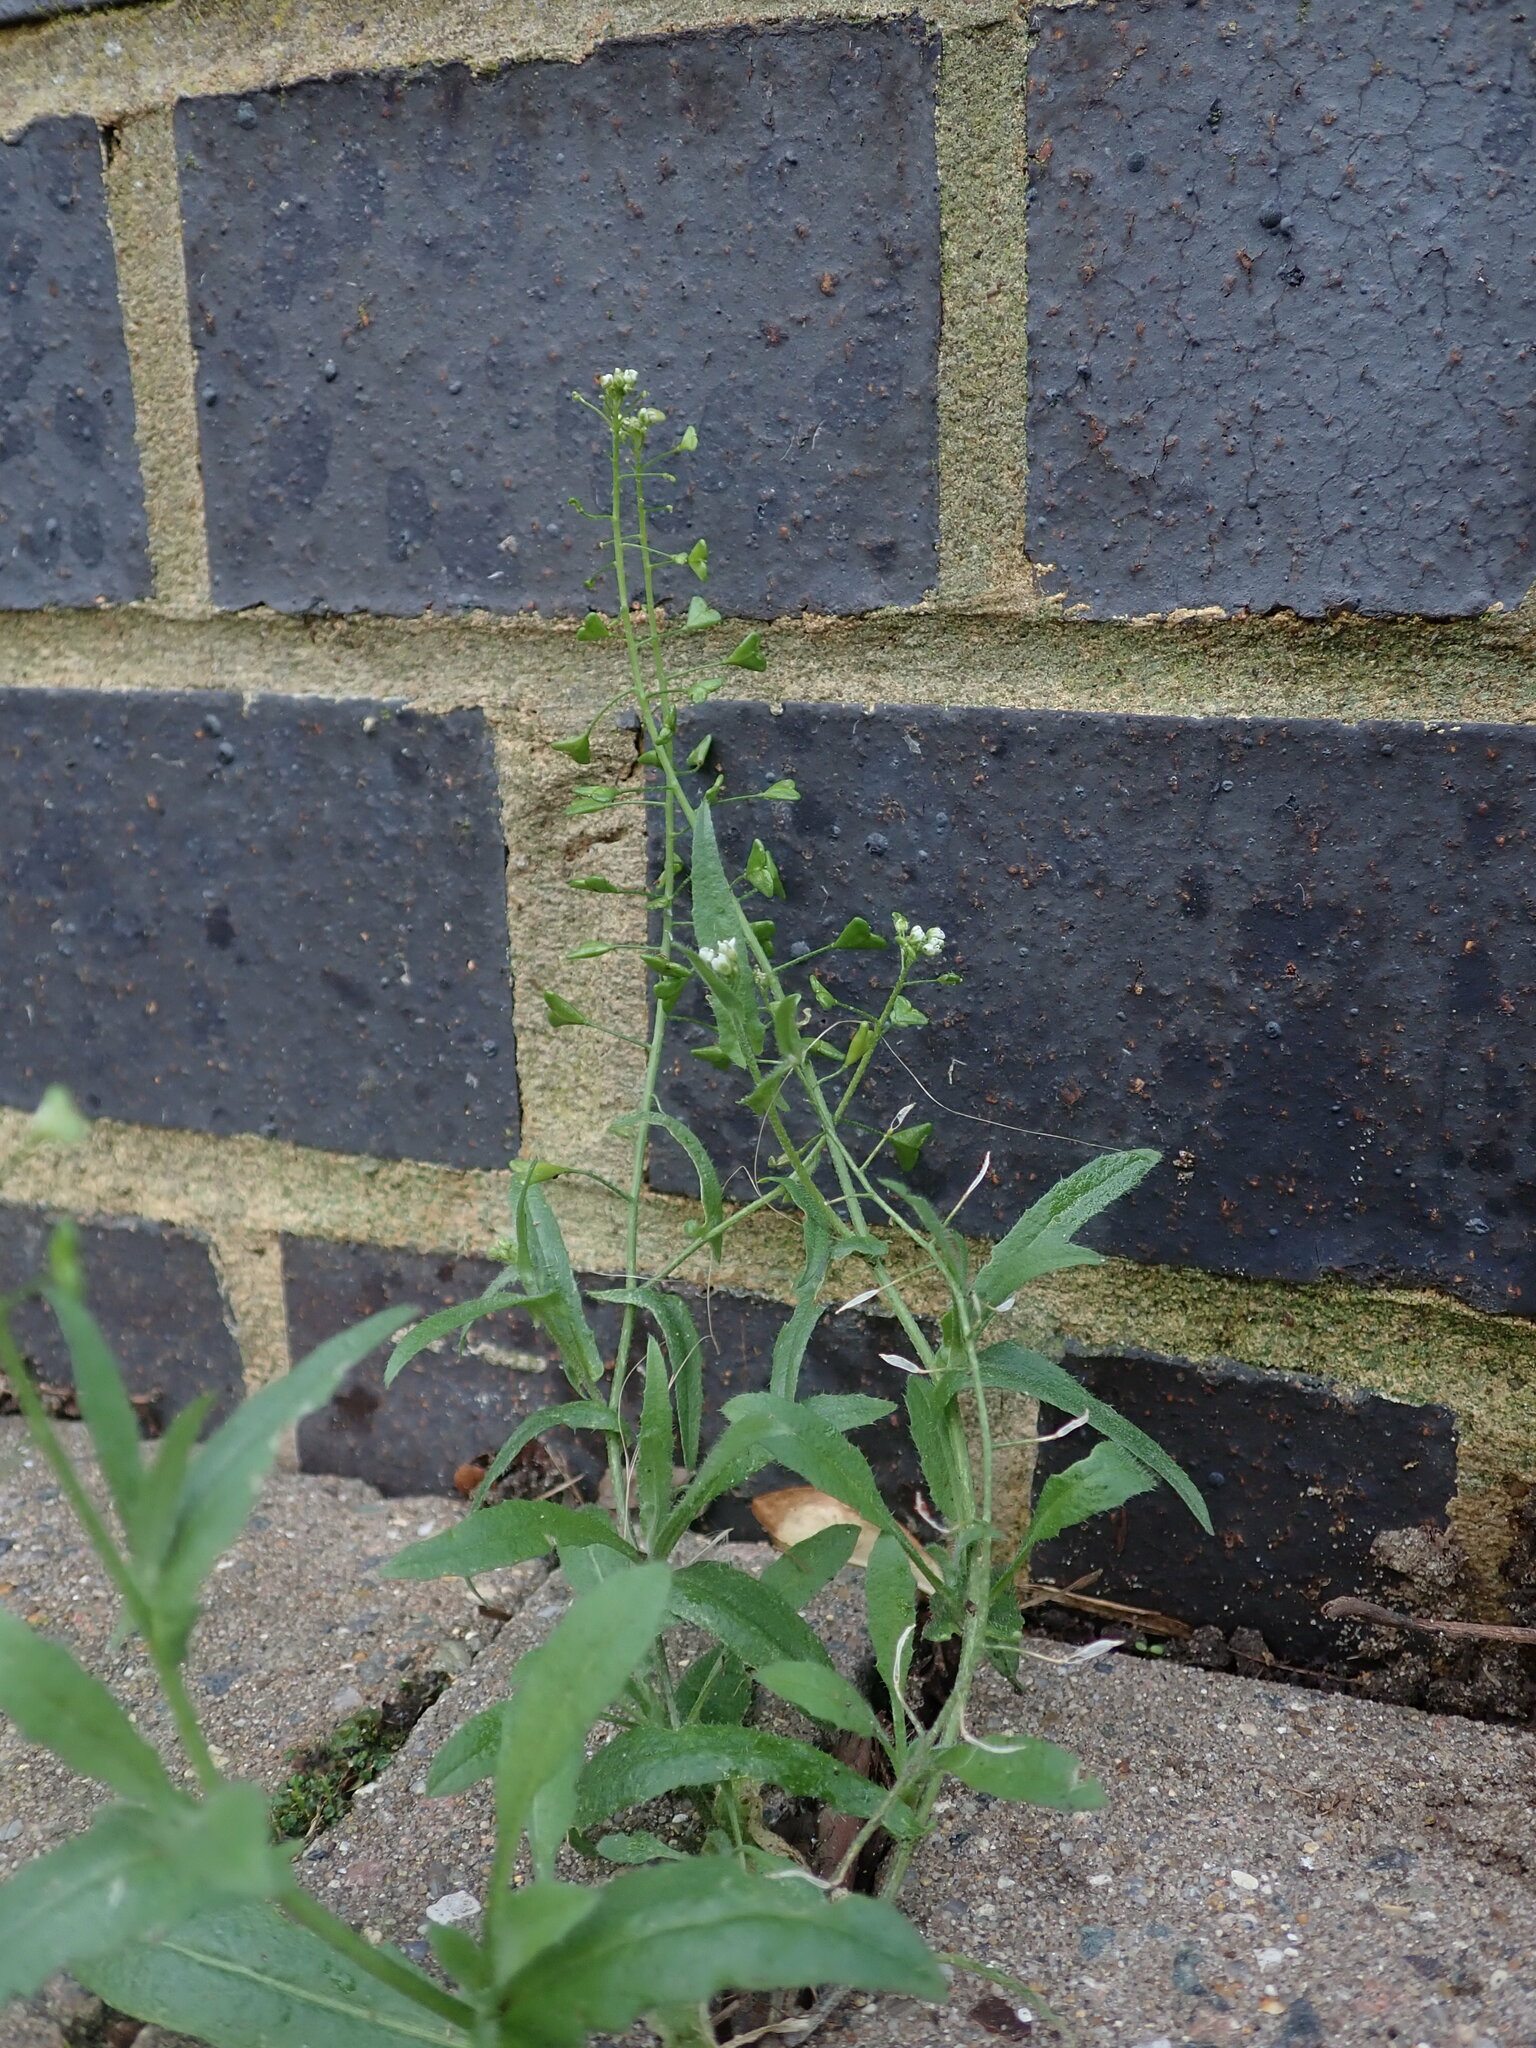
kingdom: Plantae
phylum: Tracheophyta
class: Magnoliopsida
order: Brassicales
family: Brassicaceae
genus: Capsella
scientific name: Capsella bursa-pastoris
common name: Shepherd's purse
